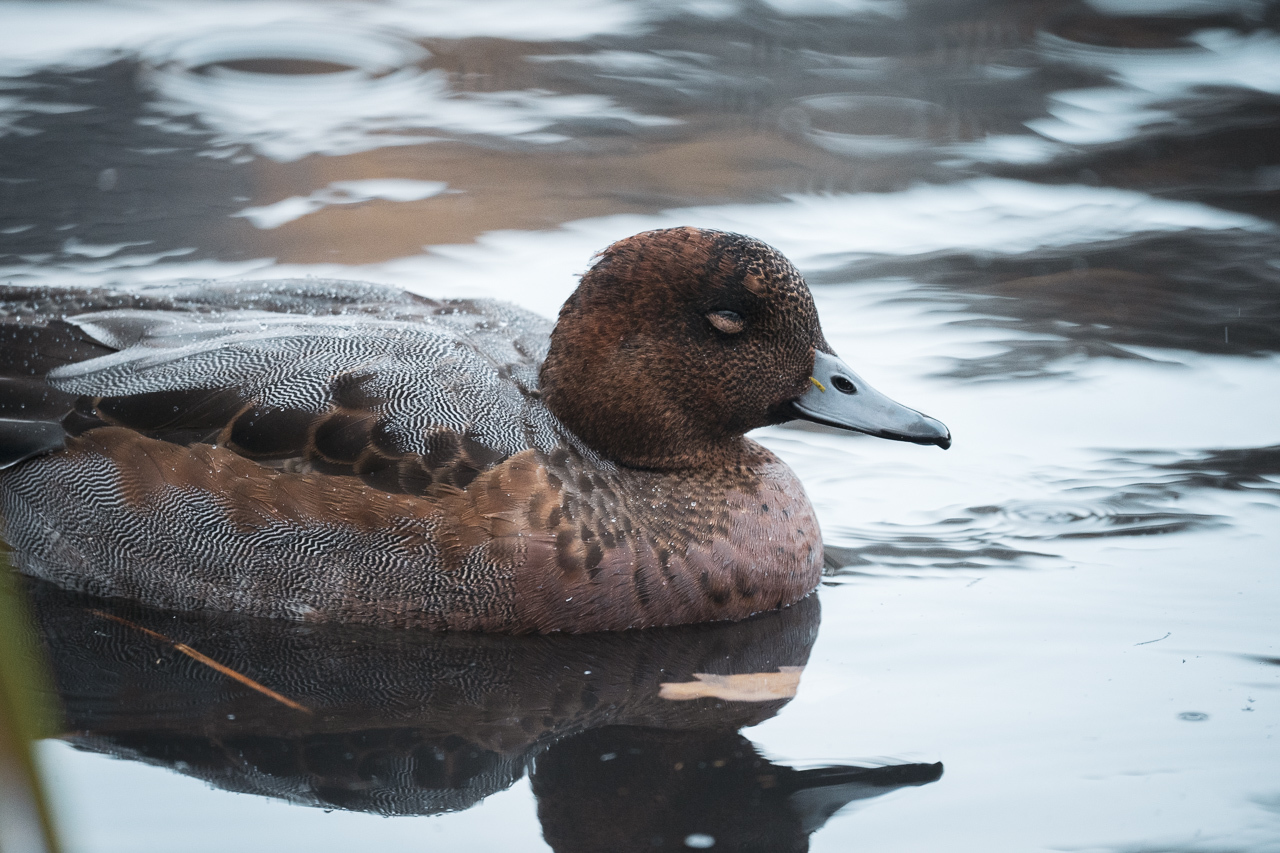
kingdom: Animalia
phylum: Chordata
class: Aves
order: Anseriformes
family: Anatidae
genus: Mareca
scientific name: Mareca penelope
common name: Eurasian wigeon
